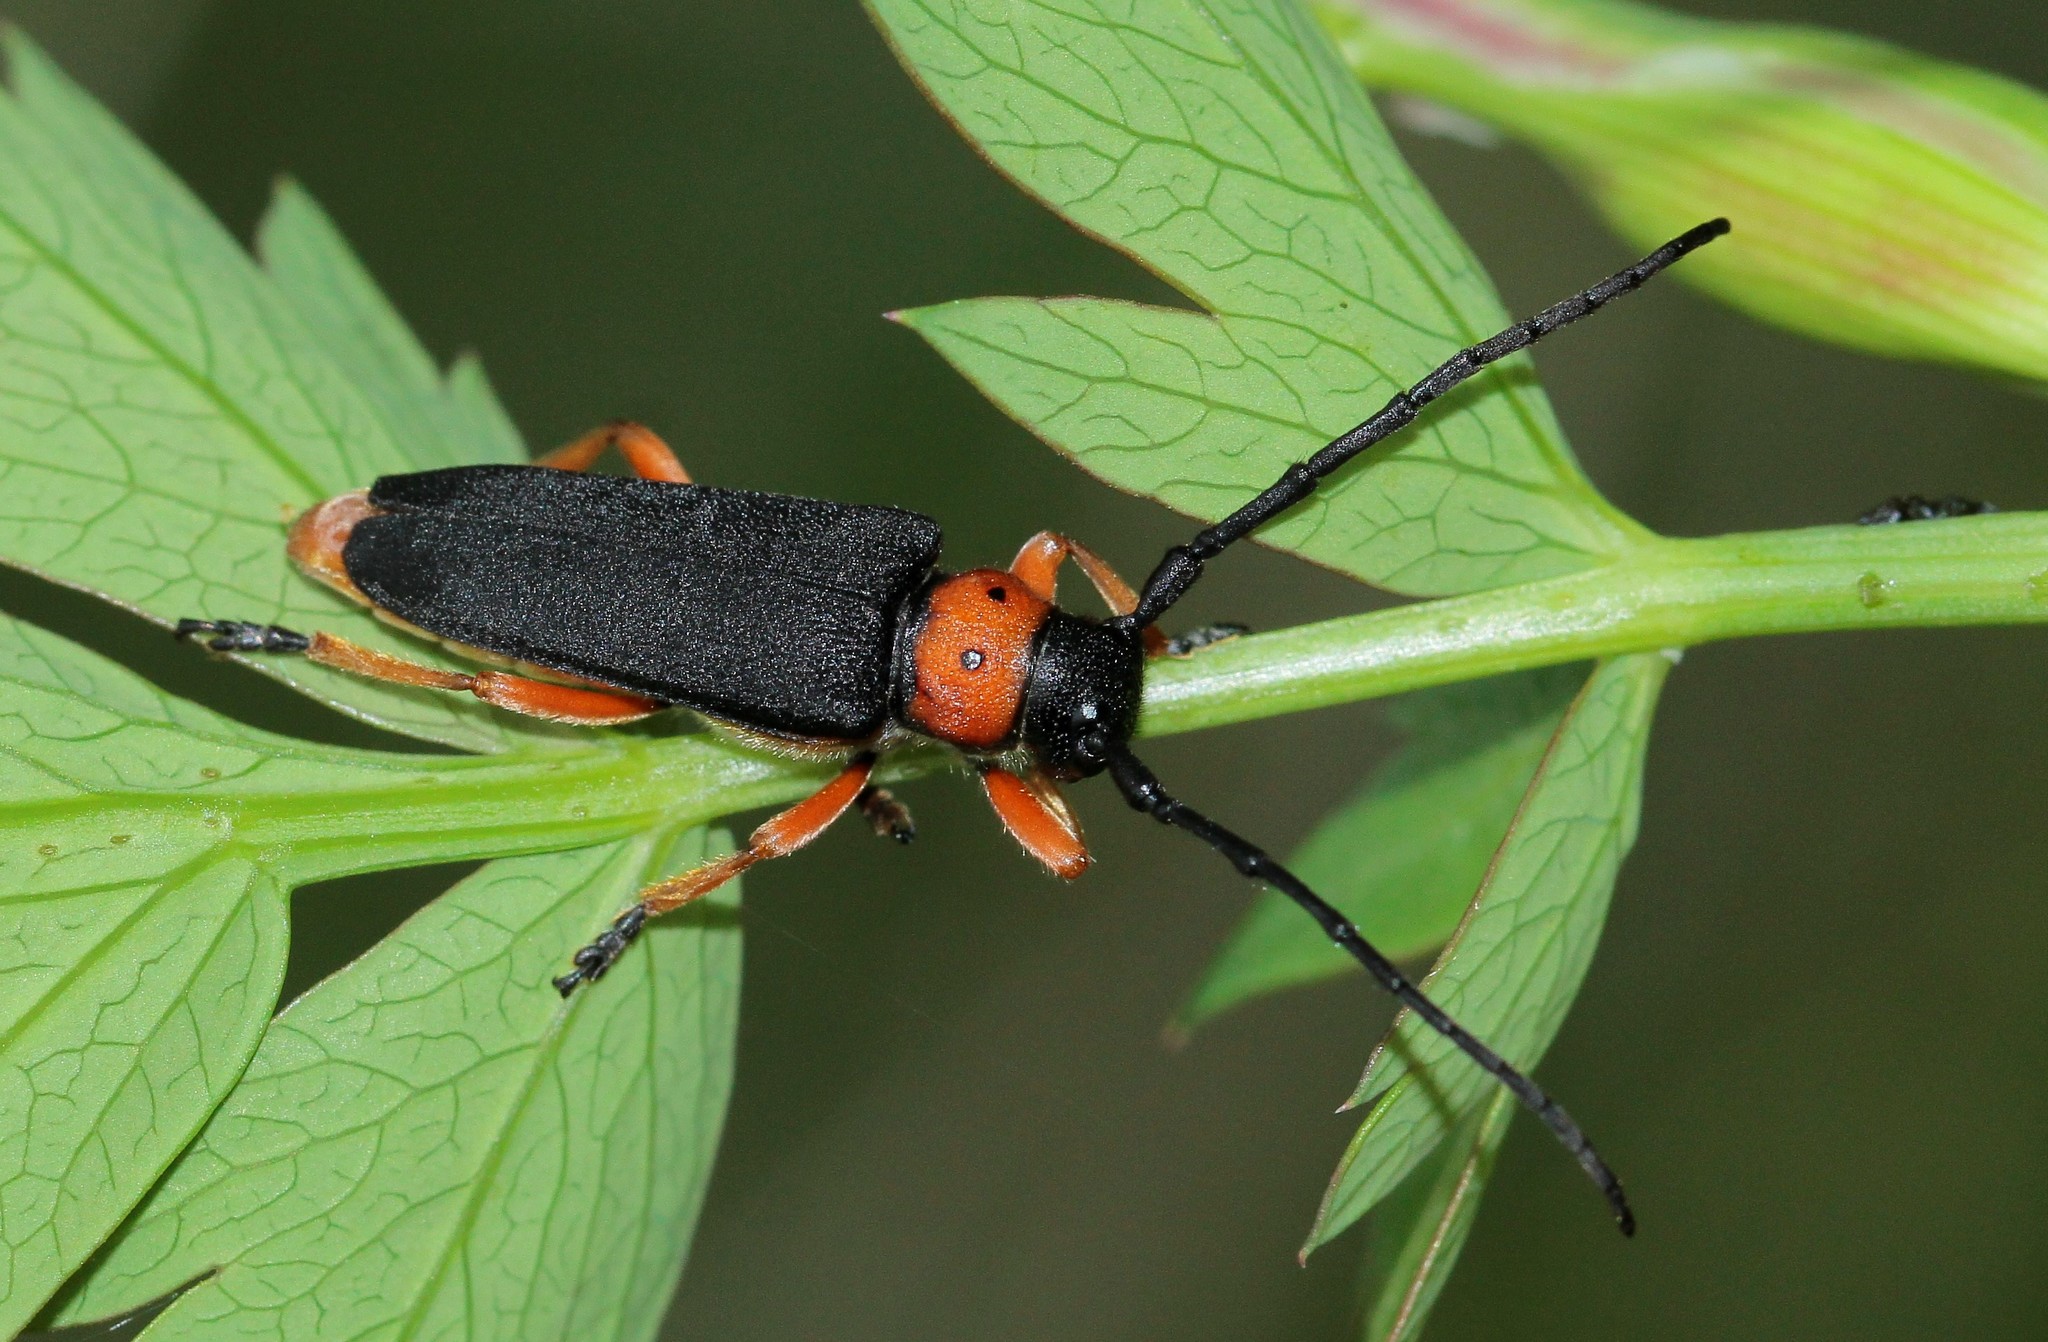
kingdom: Animalia
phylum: Arthropoda
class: Insecta
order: Coleoptera
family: Cerambycidae
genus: Phytoecia
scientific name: Phytoecia affinis
